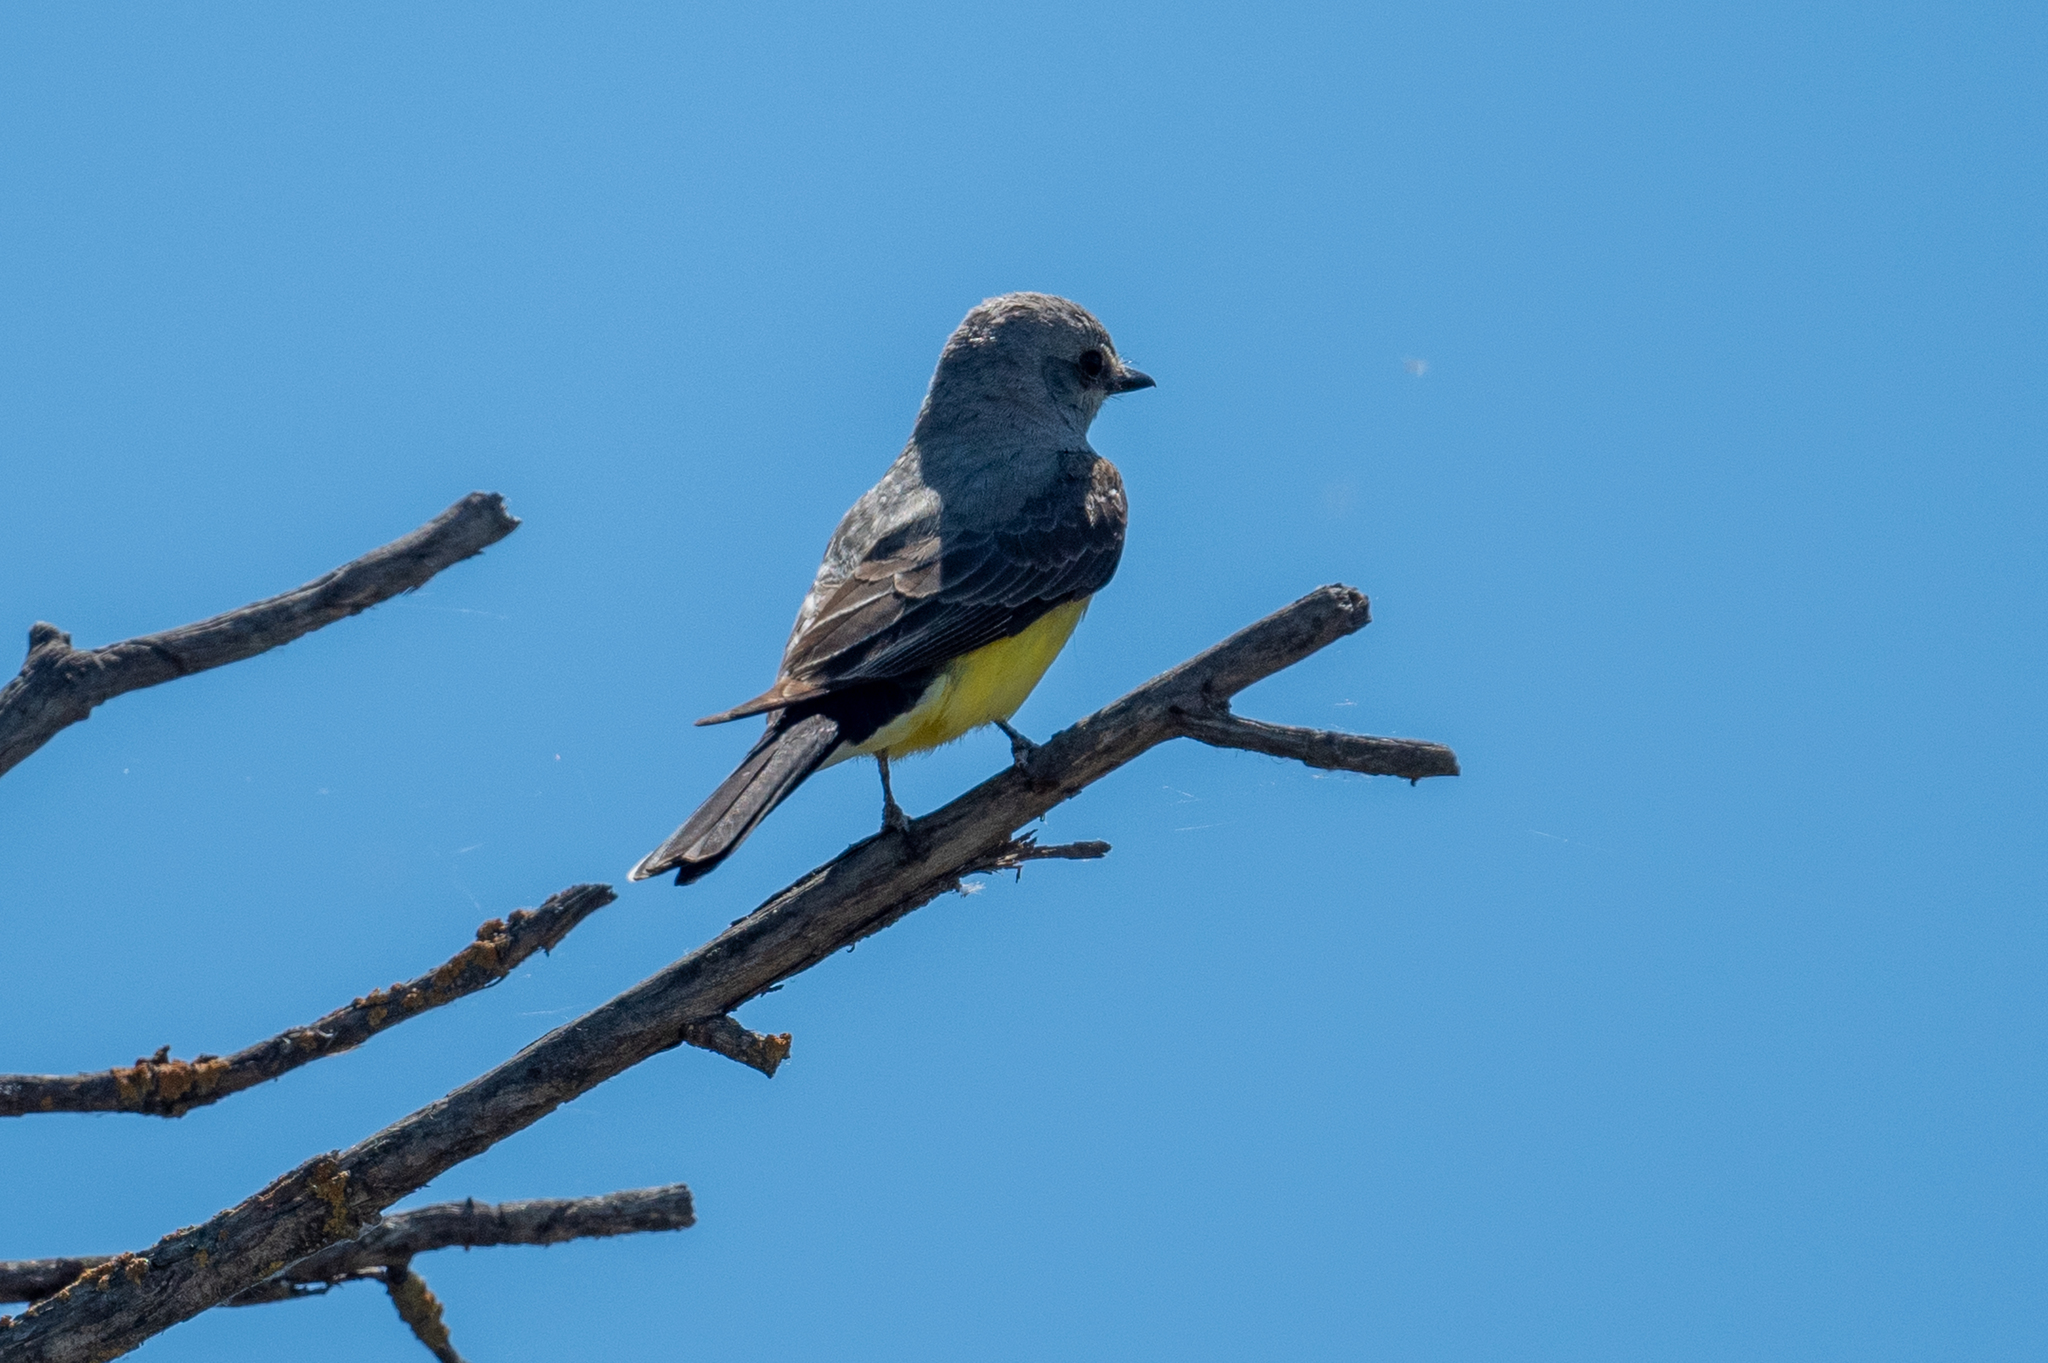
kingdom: Animalia
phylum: Chordata
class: Aves
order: Passeriformes
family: Tyrannidae
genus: Tyrannus
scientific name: Tyrannus verticalis
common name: Western kingbird
